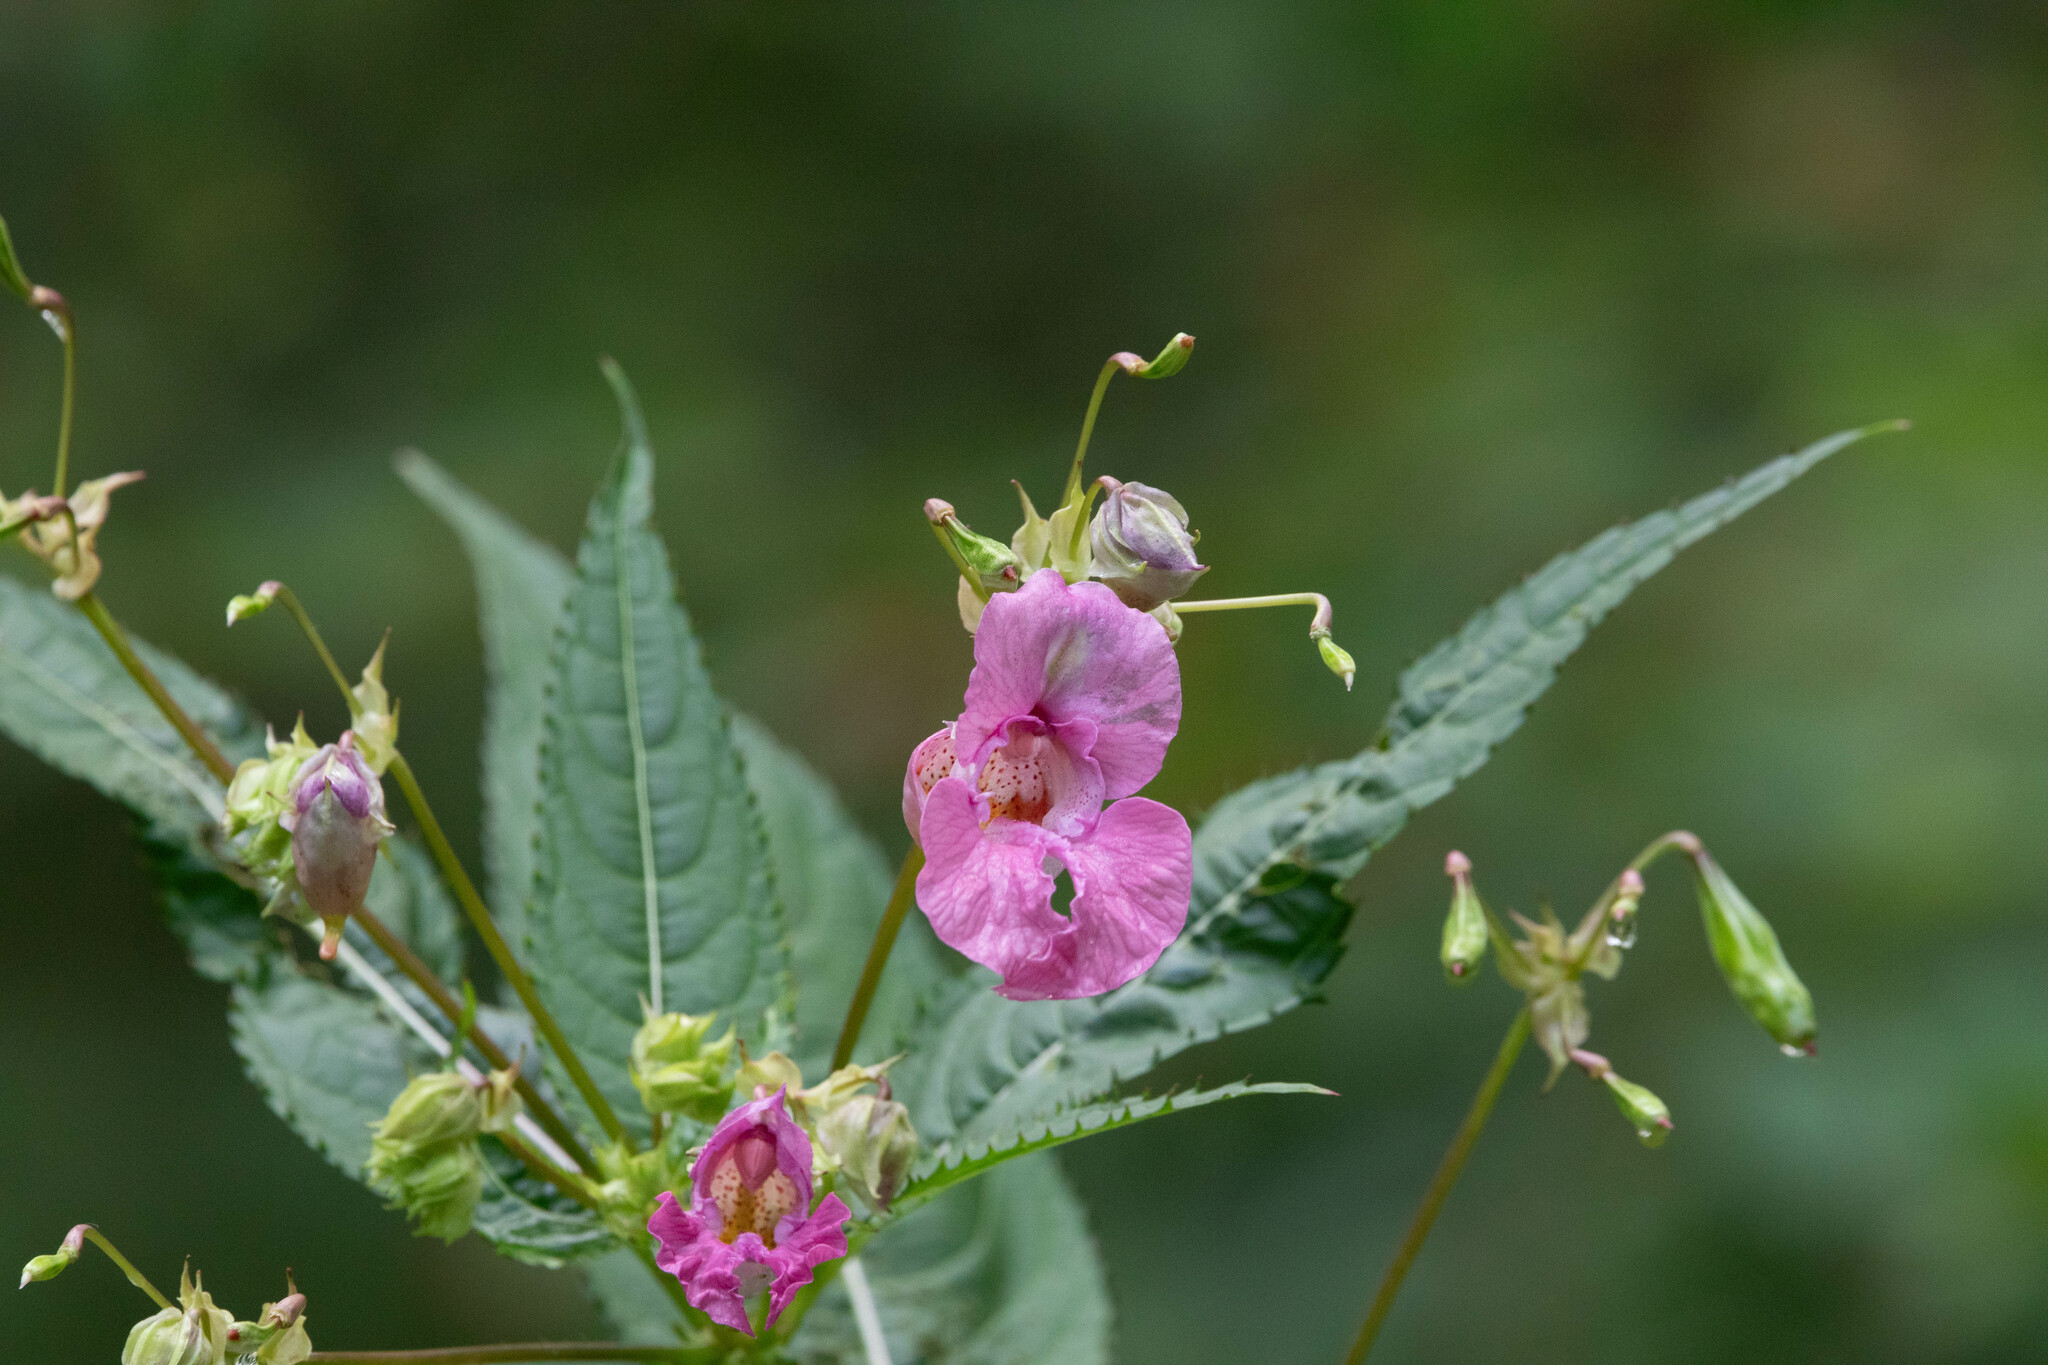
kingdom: Plantae
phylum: Tracheophyta
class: Magnoliopsida
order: Ericales
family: Balsaminaceae
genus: Impatiens
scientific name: Impatiens glandulifera
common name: Himalayan balsam
